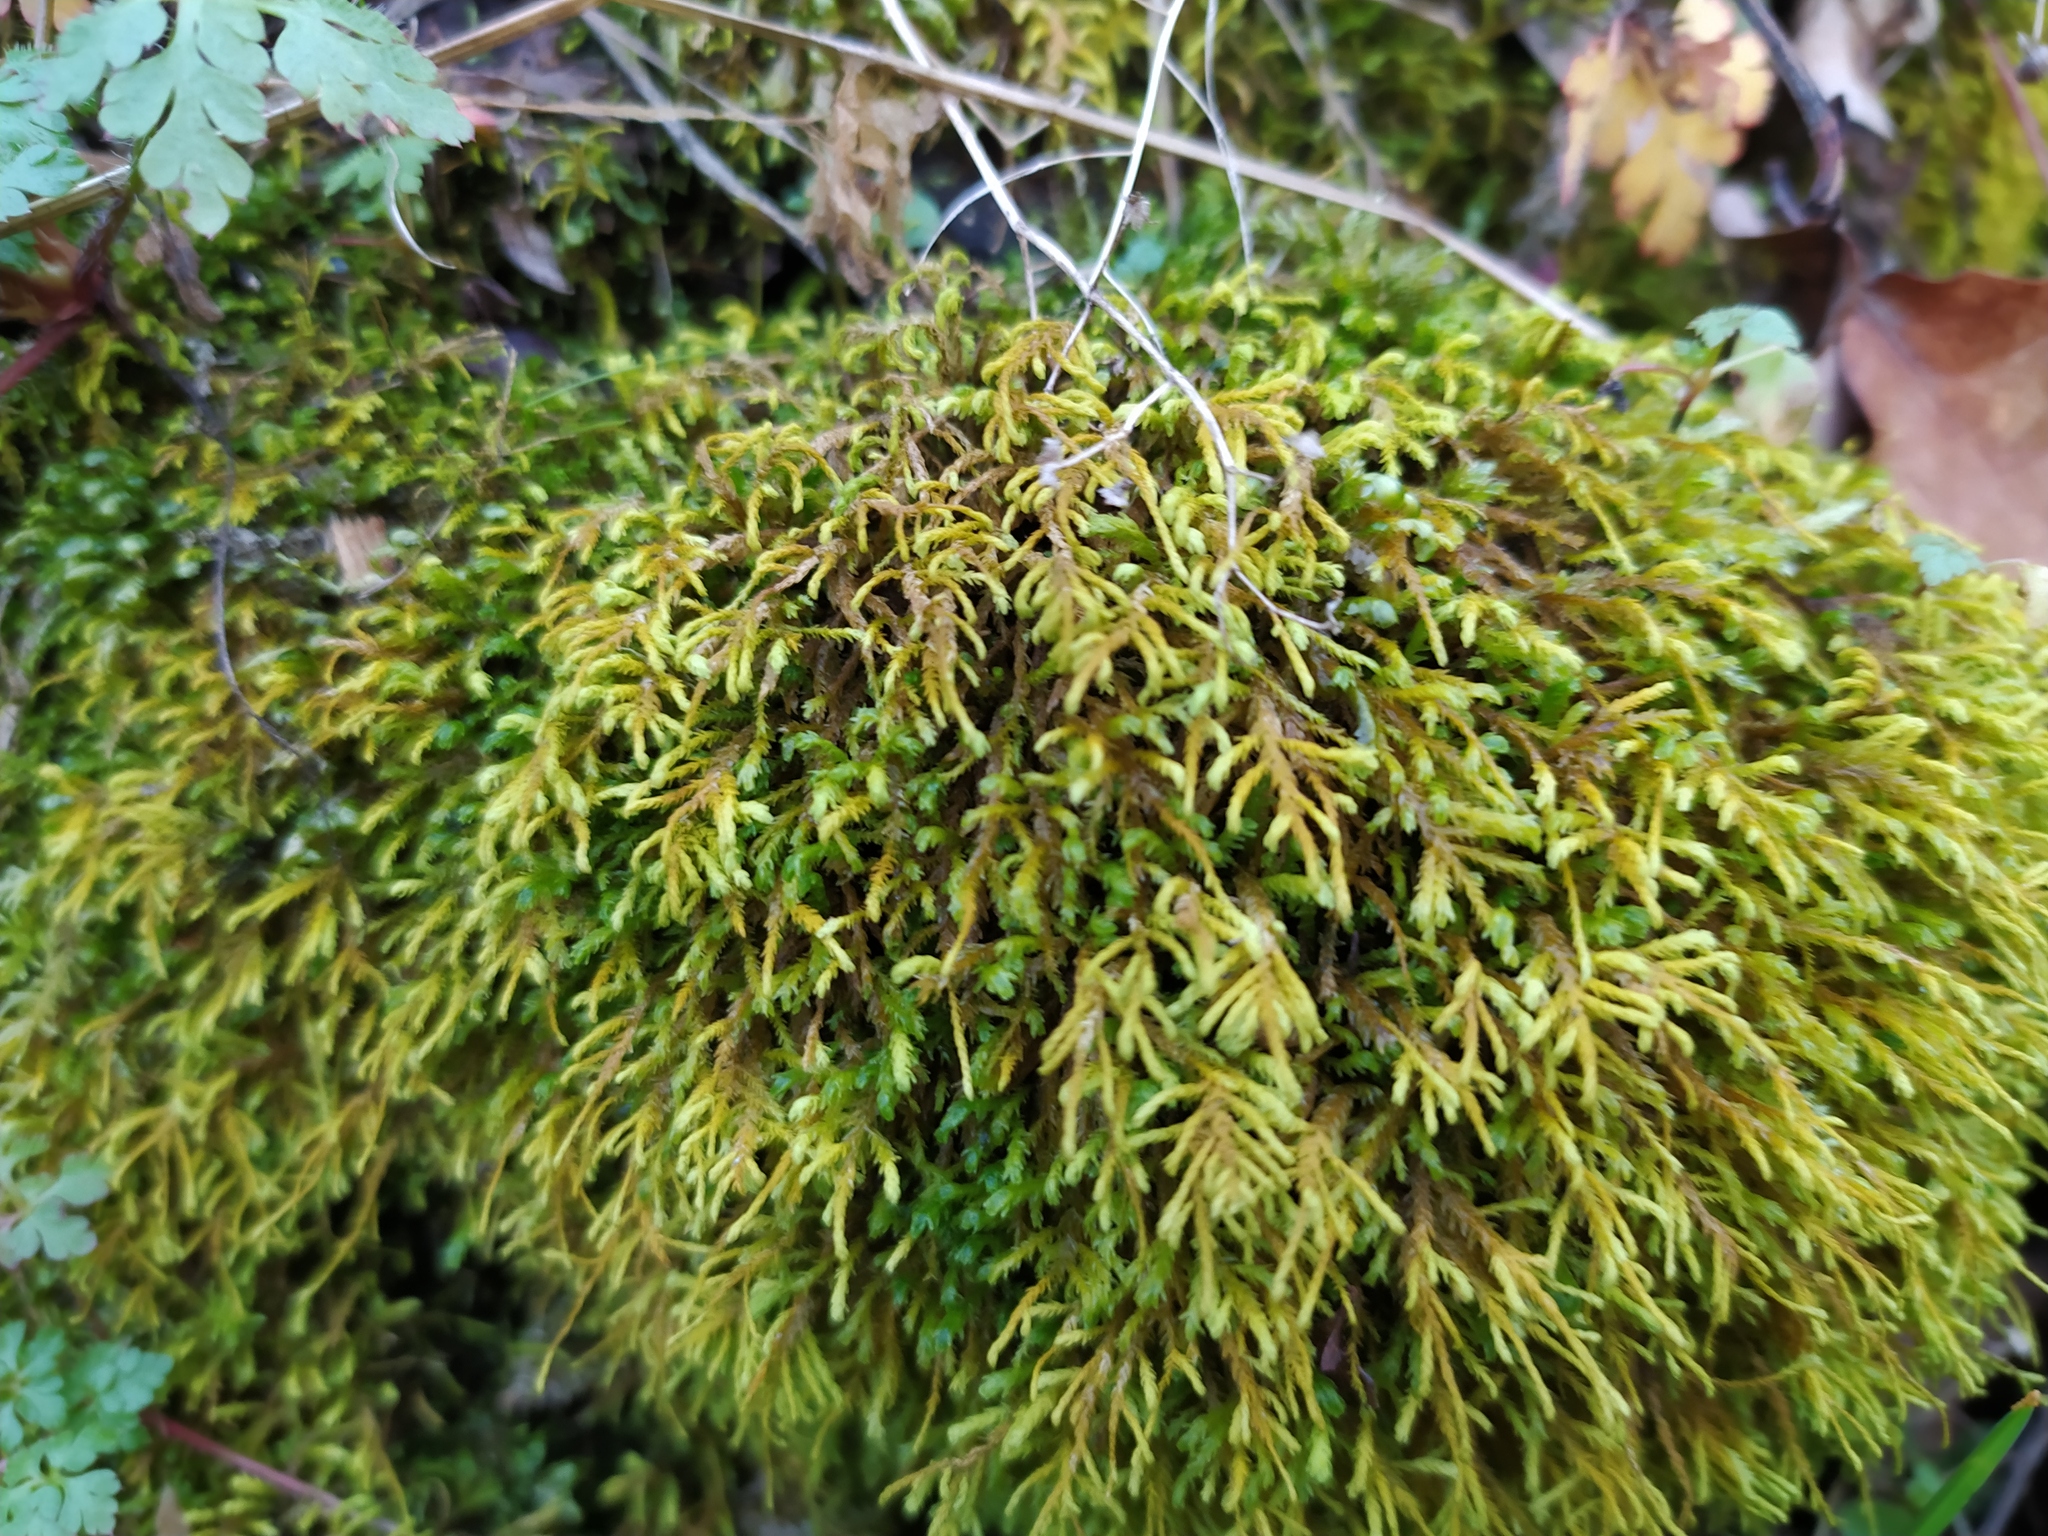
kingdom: Plantae
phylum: Bryophyta
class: Bryopsida
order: Hypnales
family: Neckeraceae
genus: Pseudanomodon
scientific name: Pseudanomodon attenuatus
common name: Tree-skirt moss
